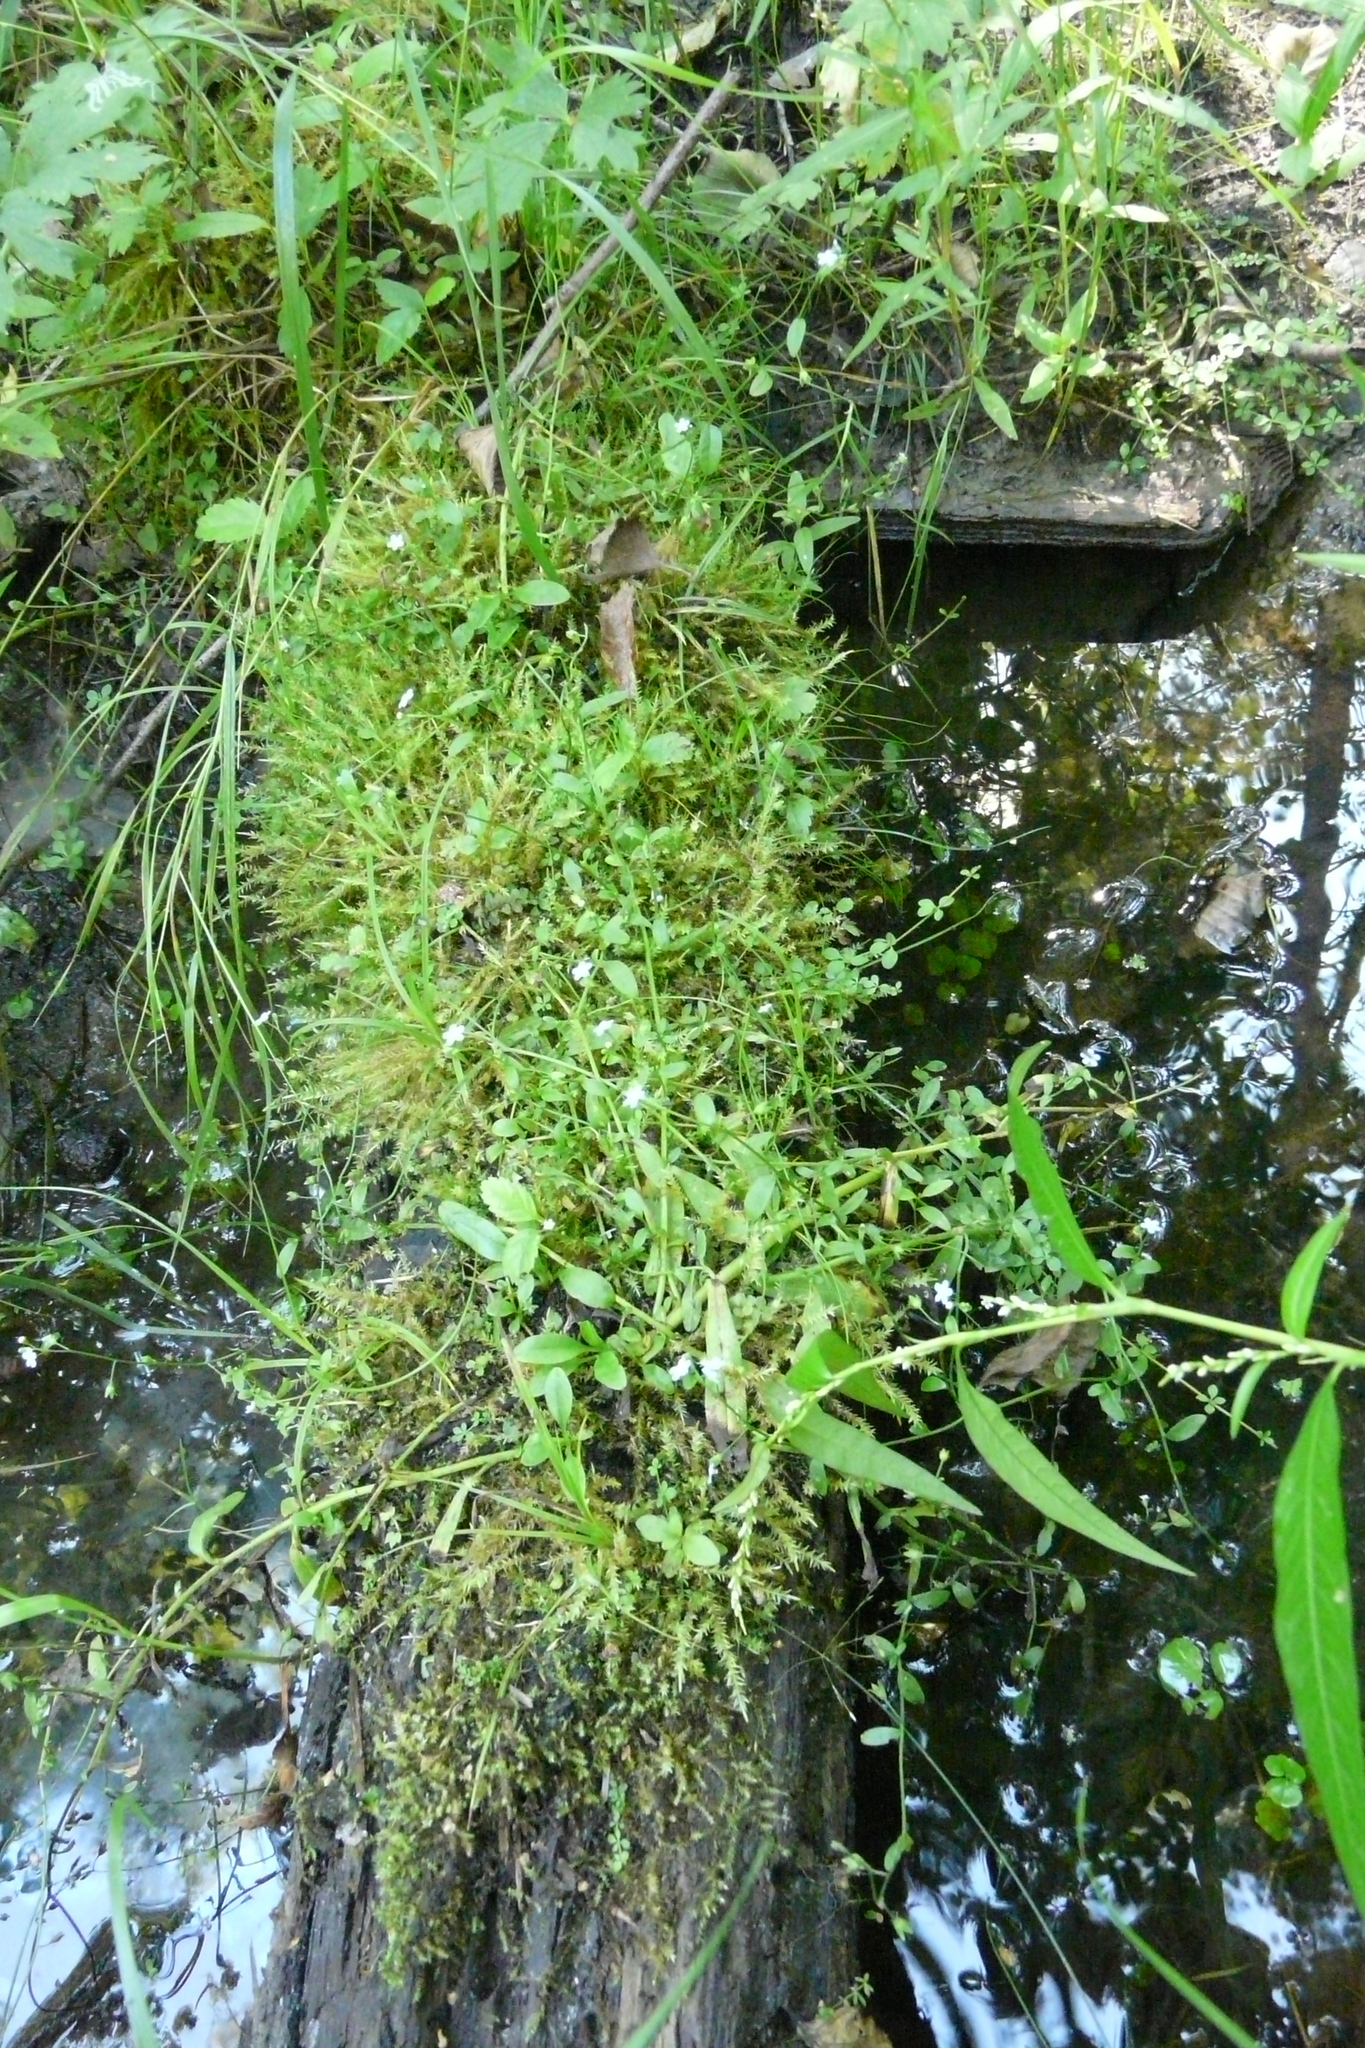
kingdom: Plantae
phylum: Tracheophyta
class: Magnoliopsida
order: Asterales
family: Asteraceae
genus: Centaurea
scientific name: Centaurea pseudophrygia
